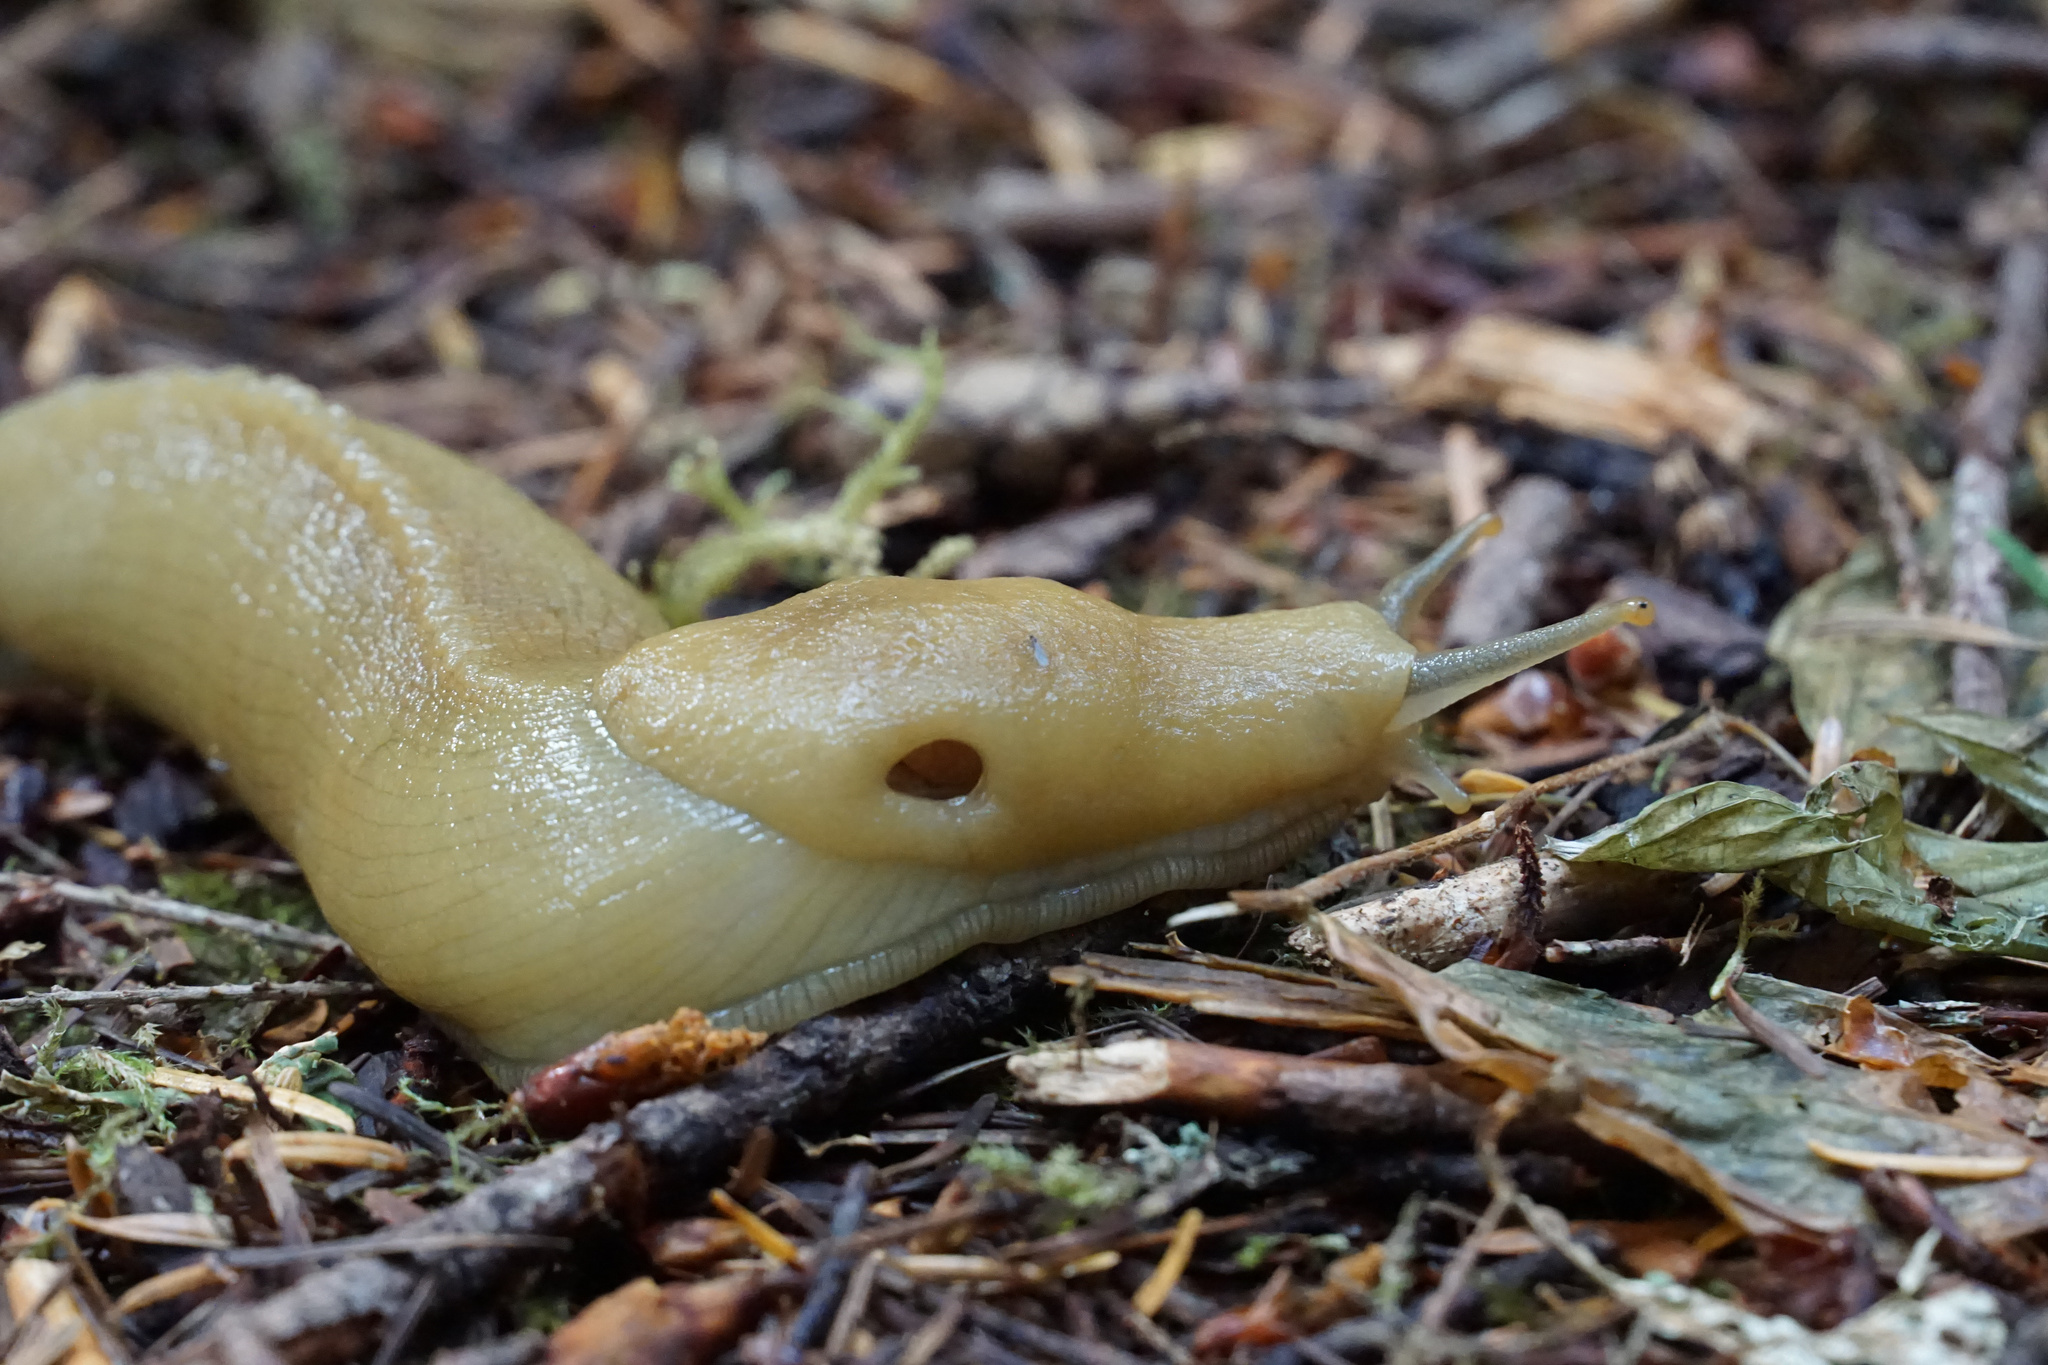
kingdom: Animalia
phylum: Mollusca
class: Gastropoda
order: Stylommatophora
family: Ariolimacidae
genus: Ariolimax
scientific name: Ariolimax columbianus
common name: Pacific banana slug
